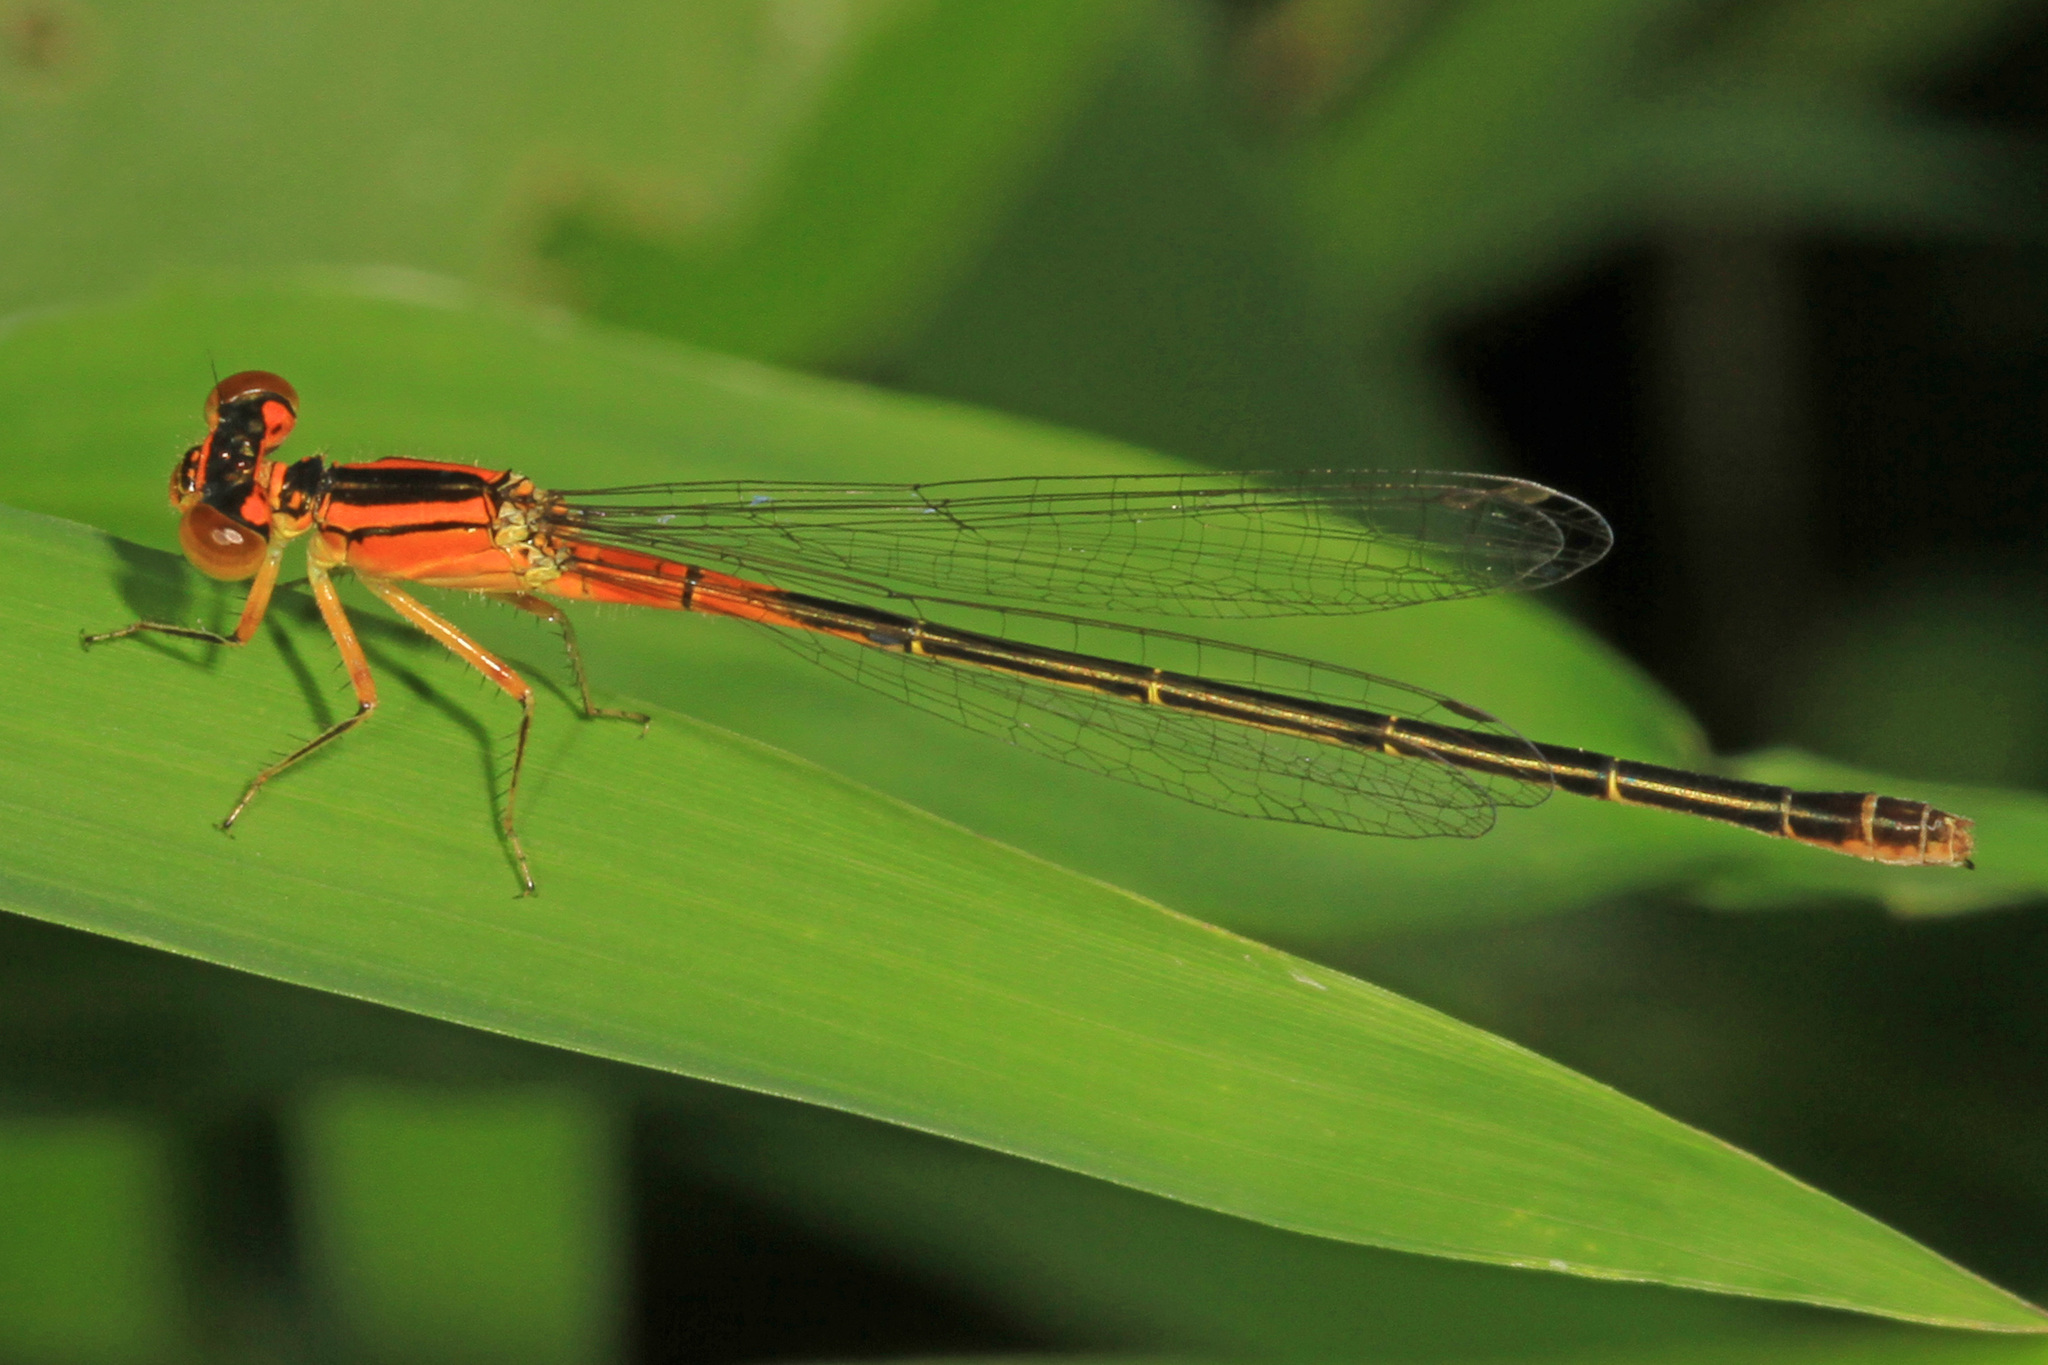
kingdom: Animalia
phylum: Arthropoda
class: Insecta
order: Odonata
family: Coenagrionidae
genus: Ischnura
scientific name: Ischnura verticalis
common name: Eastern forktail
